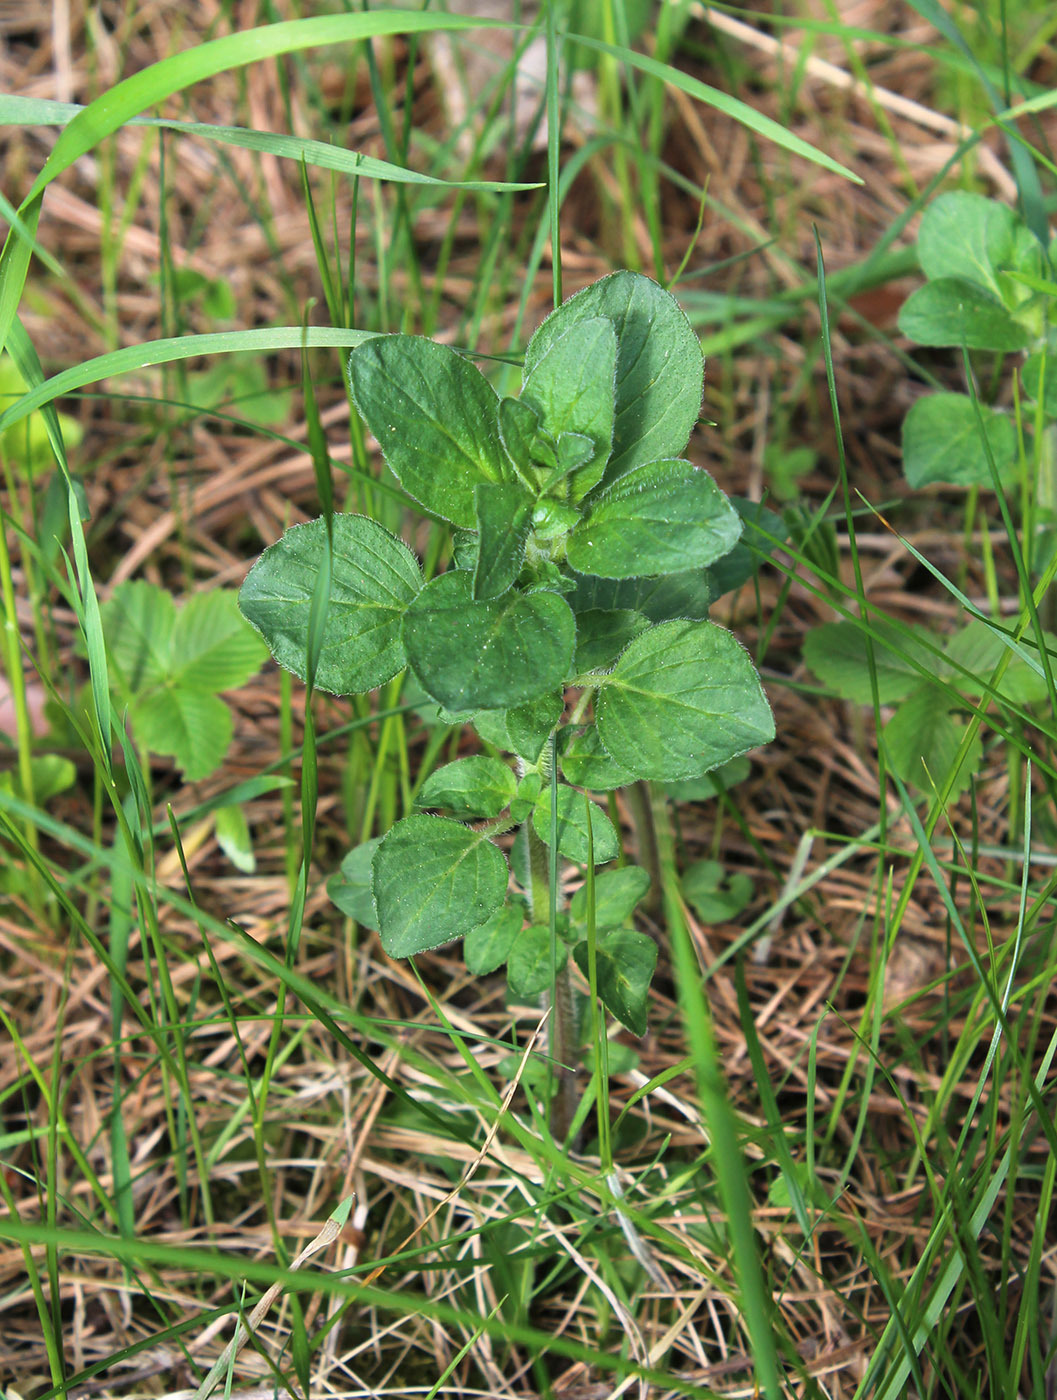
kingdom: Plantae
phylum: Tracheophyta
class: Magnoliopsida
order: Lamiales
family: Lamiaceae
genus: Clinopodium
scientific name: Clinopodium vulgare
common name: Wild basil
